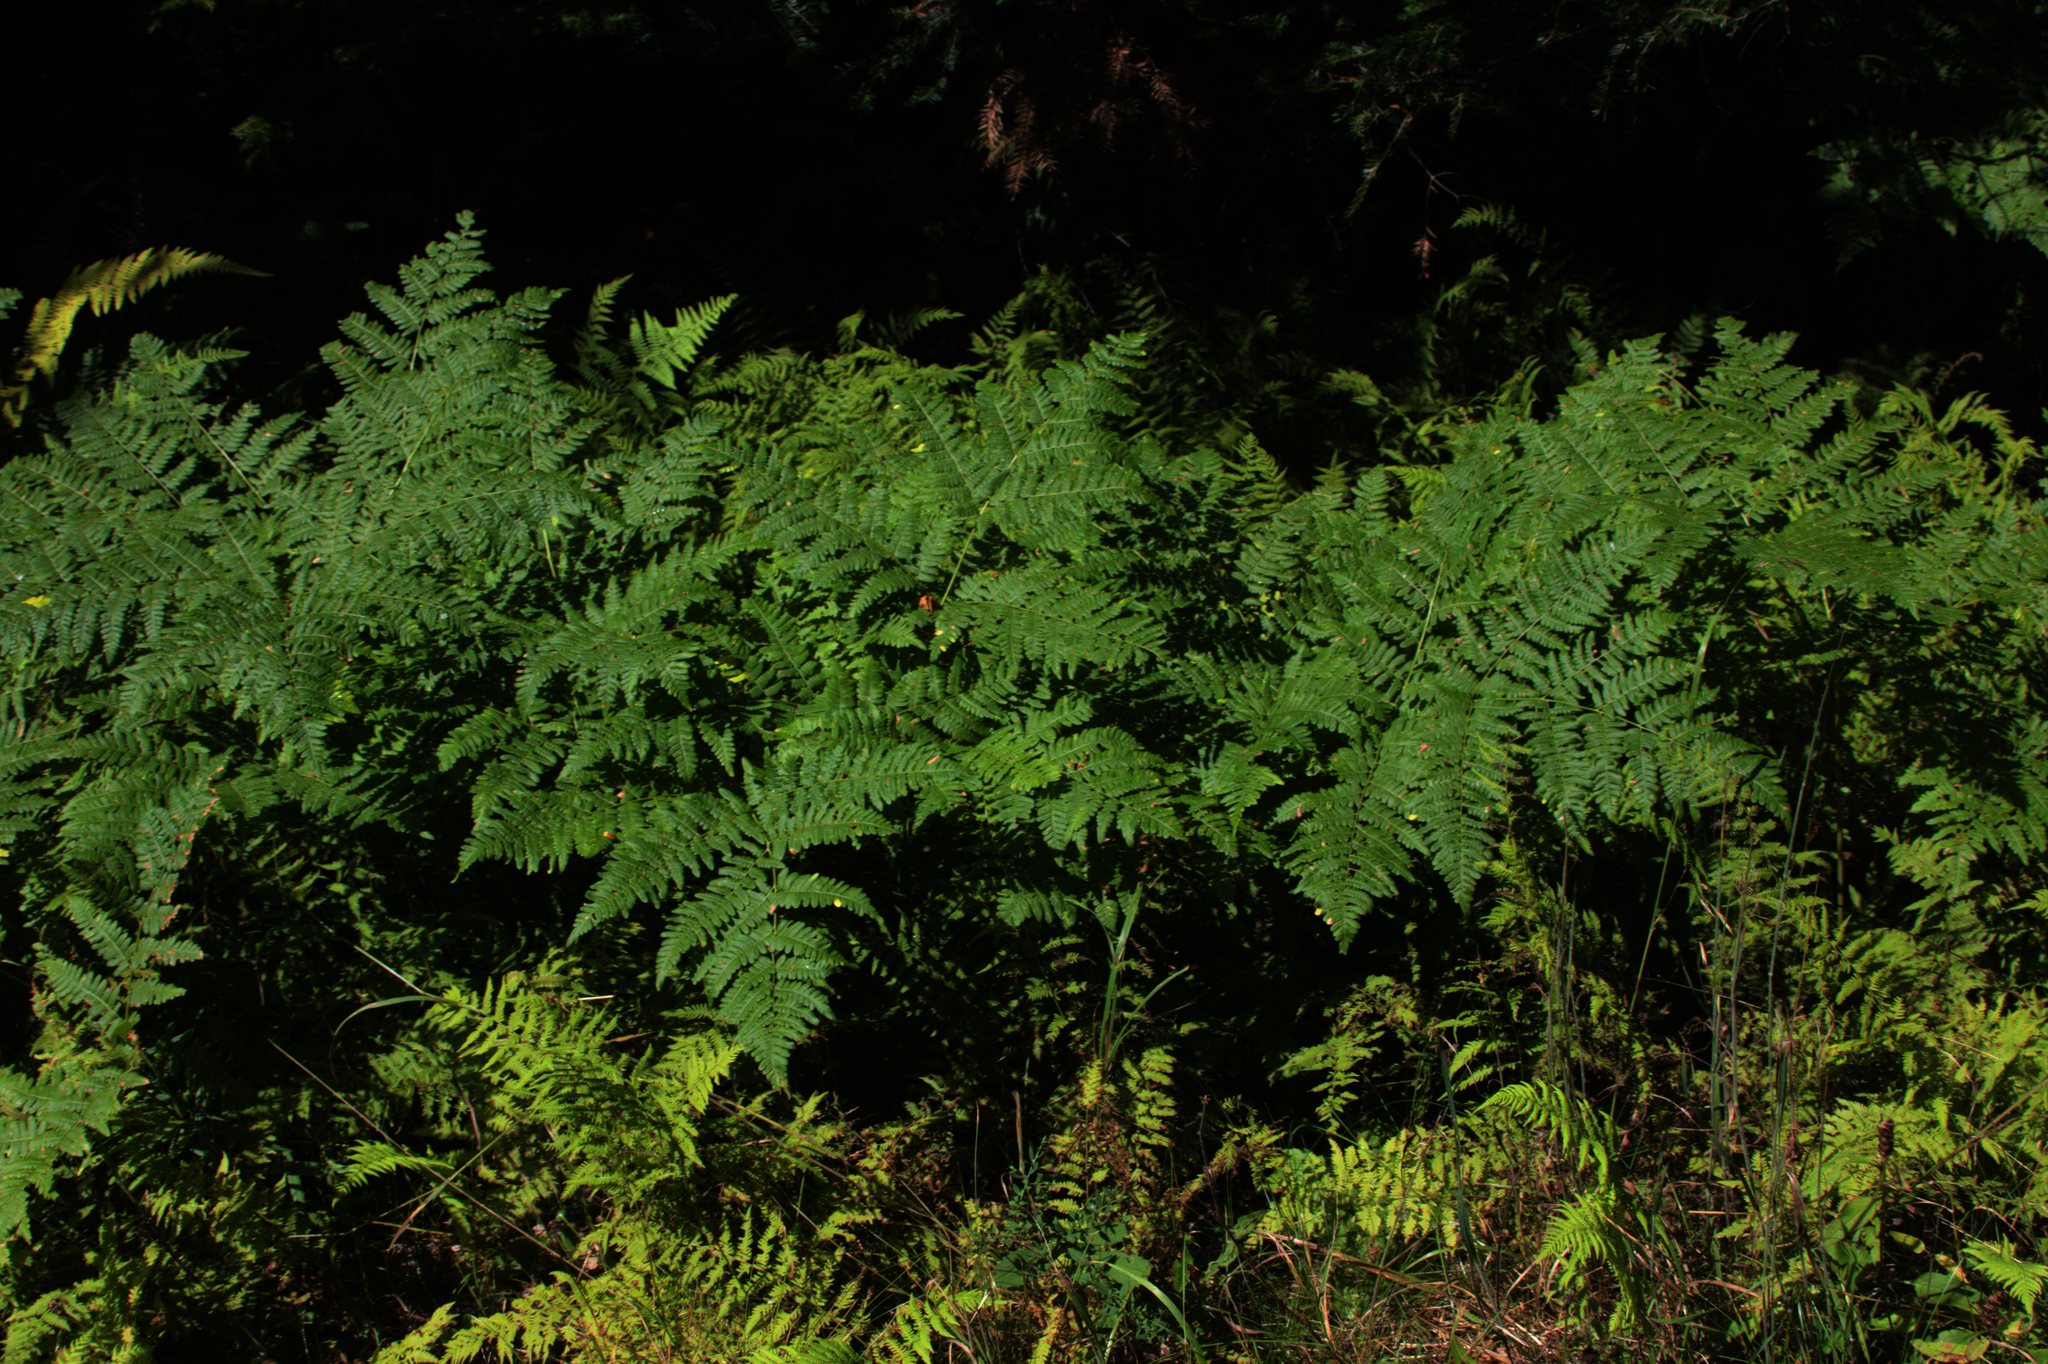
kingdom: Plantae
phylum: Tracheophyta
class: Polypodiopsida
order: Polypodiales
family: Dennstaedtiaceae
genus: Pteridium
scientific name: Pteridium aquilinum
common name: Bracken
